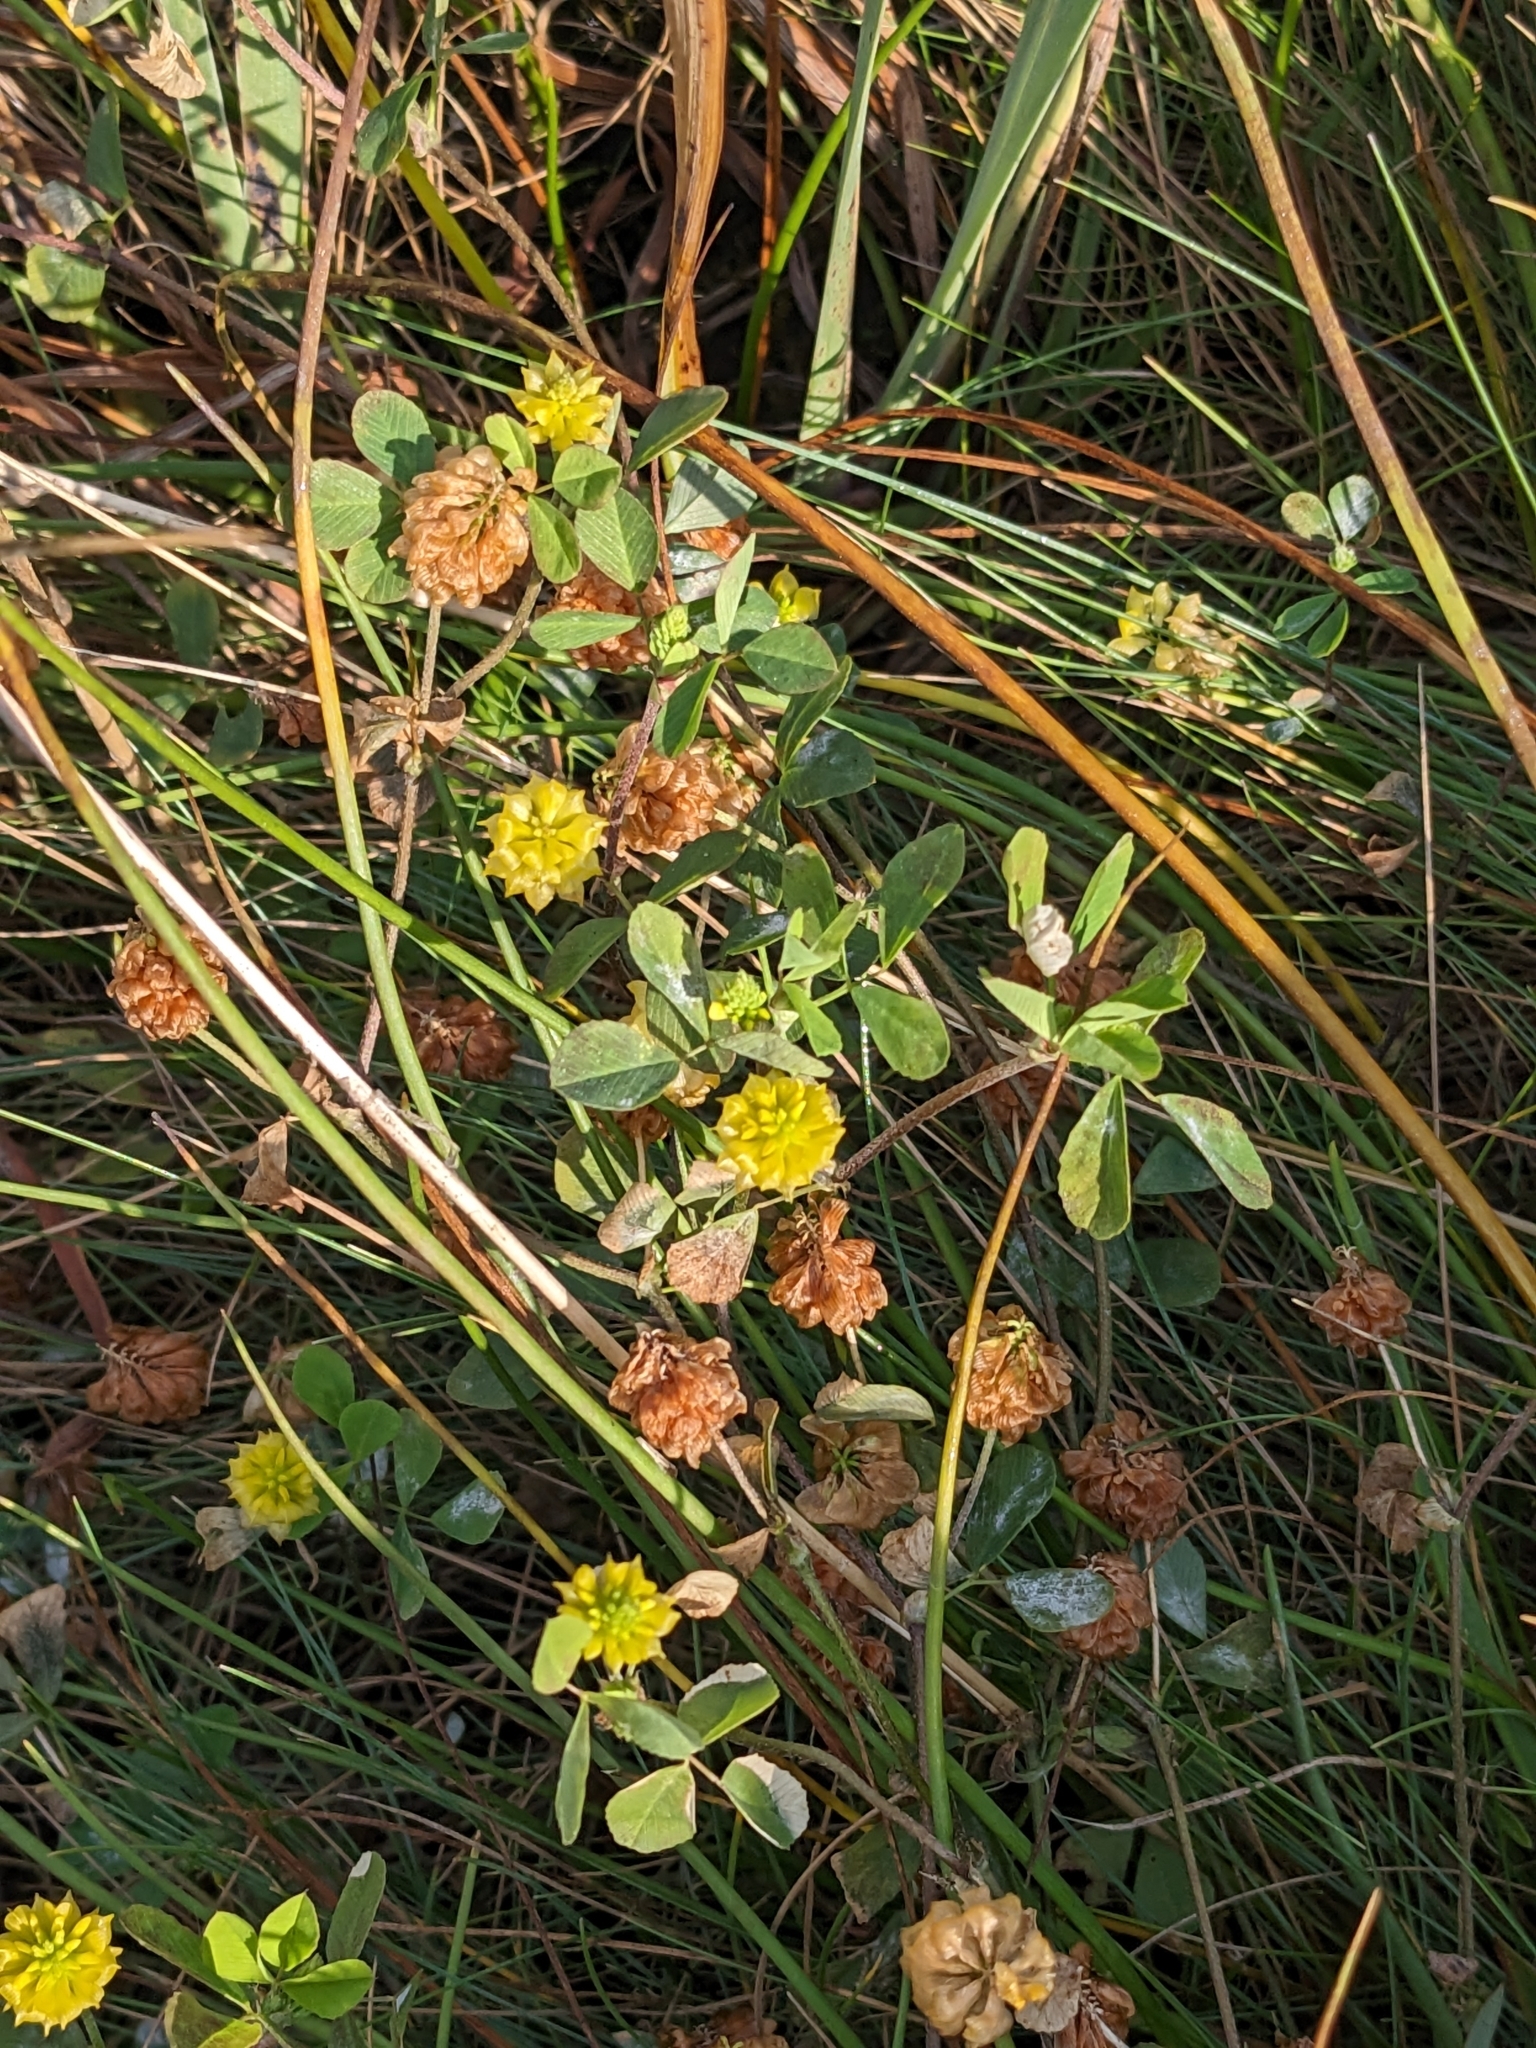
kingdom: Plantae
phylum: Tracheophyta
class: Magnoliopsida
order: Fabales
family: Fabaceae
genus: Trifolium
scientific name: Trifolium campestre
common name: Field clover
